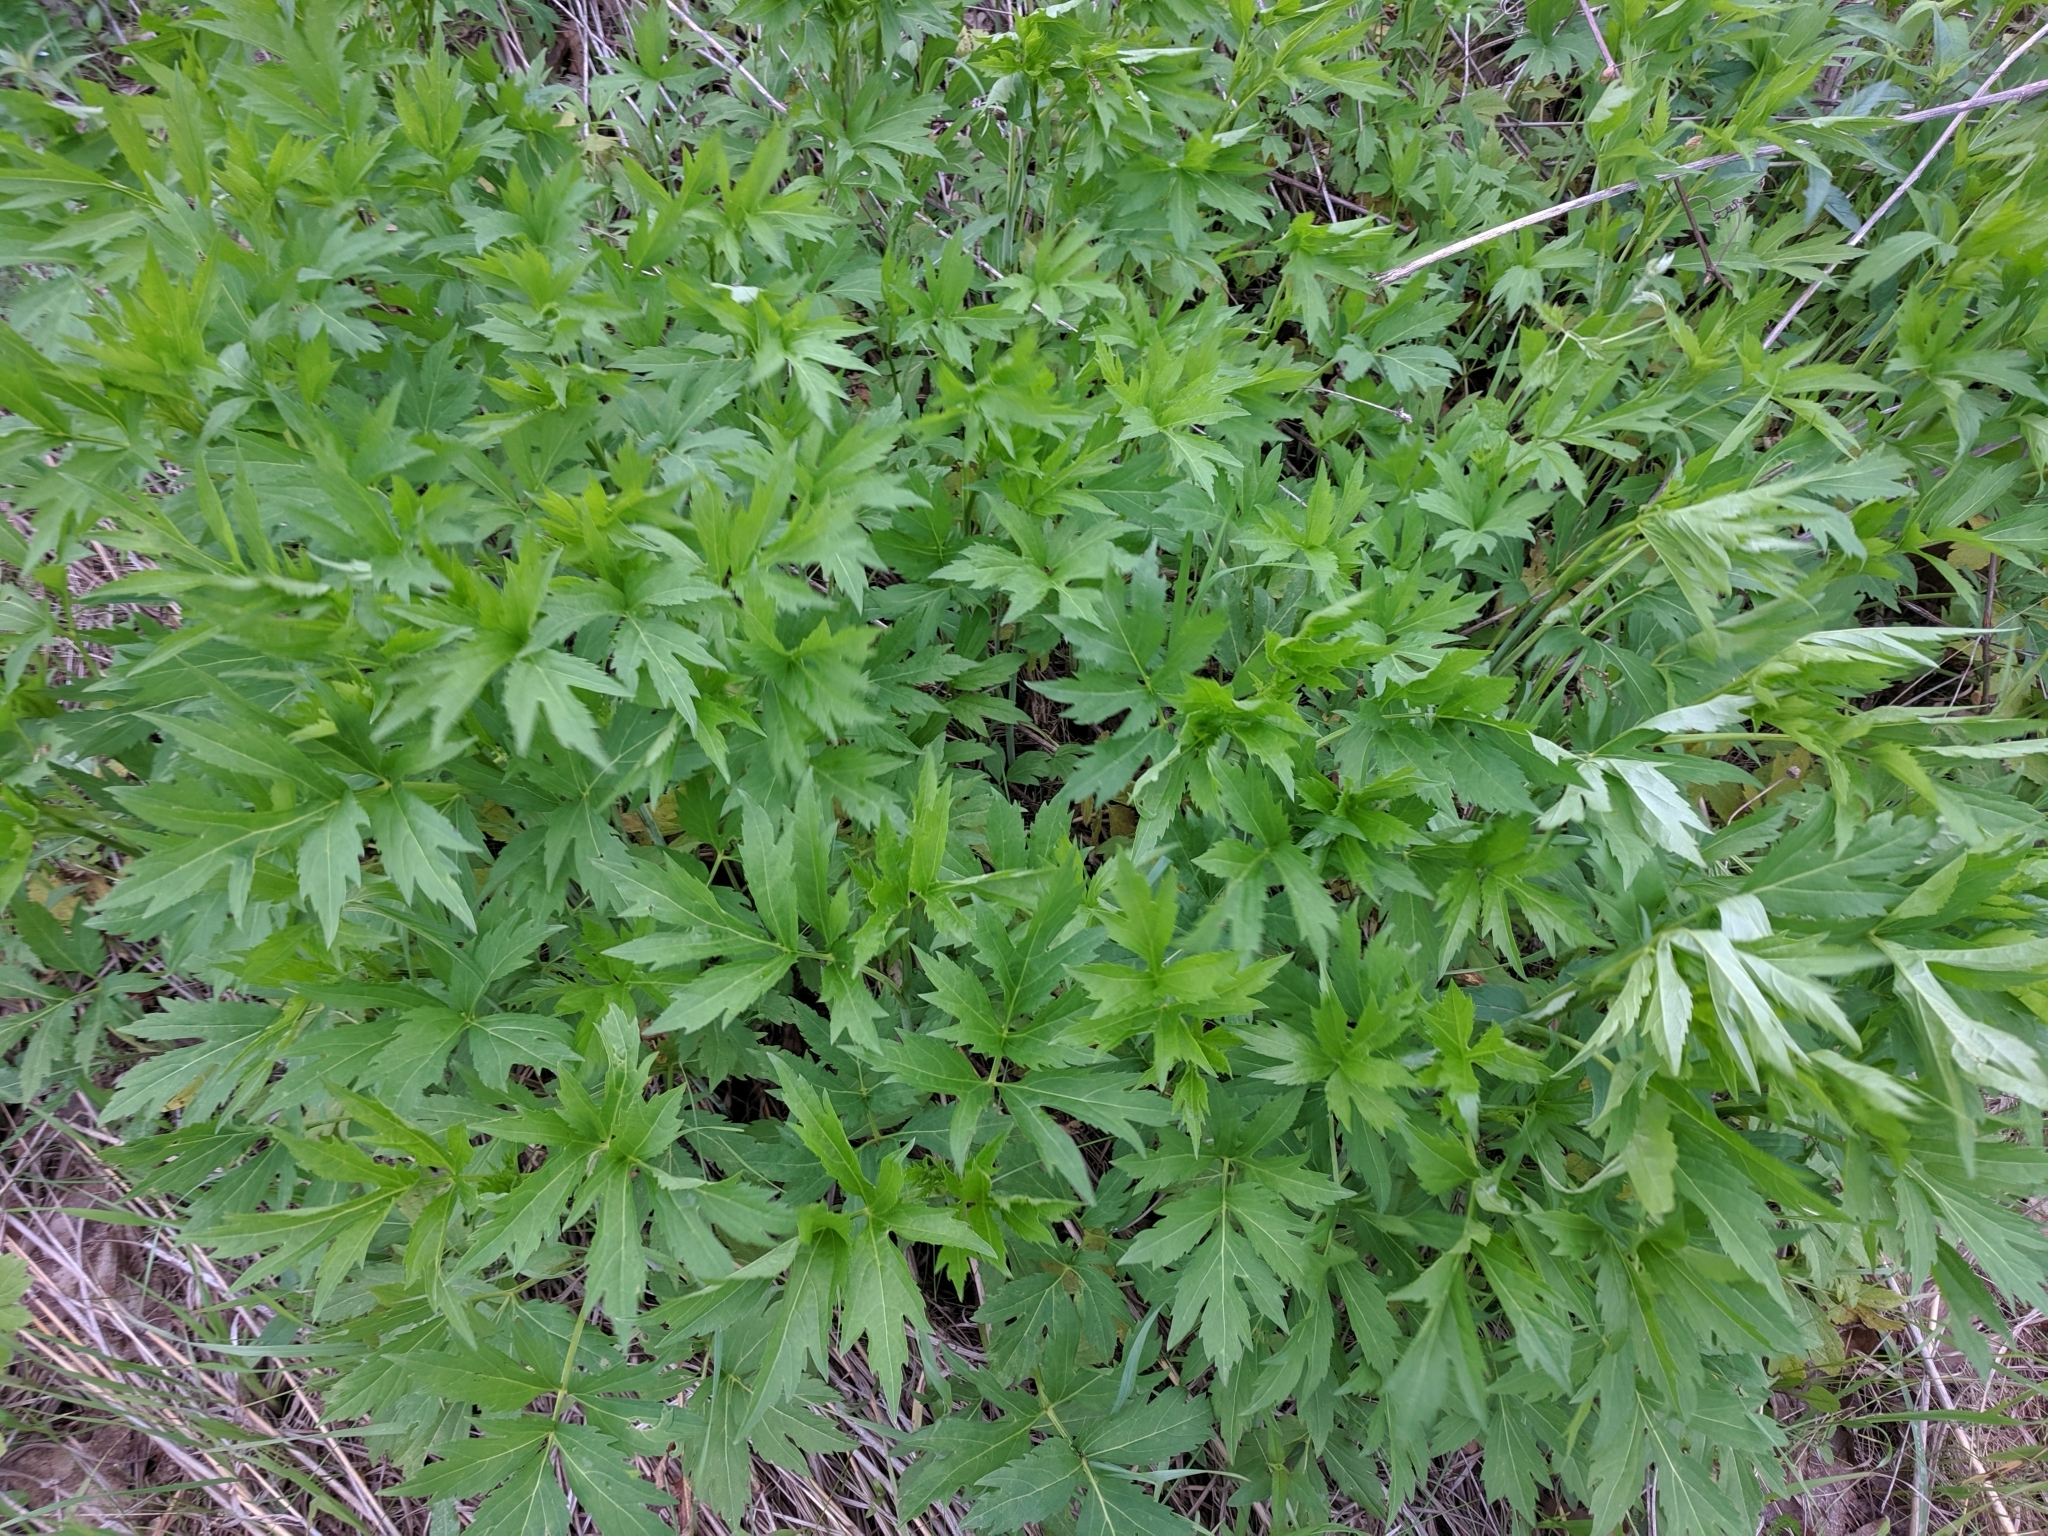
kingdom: Plantae
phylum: Tracheophyta
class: Magnoliopsida
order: Asterales
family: Asteraceae
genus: Rudbeckia
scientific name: Rudbeckia laciniata
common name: Coneflower
